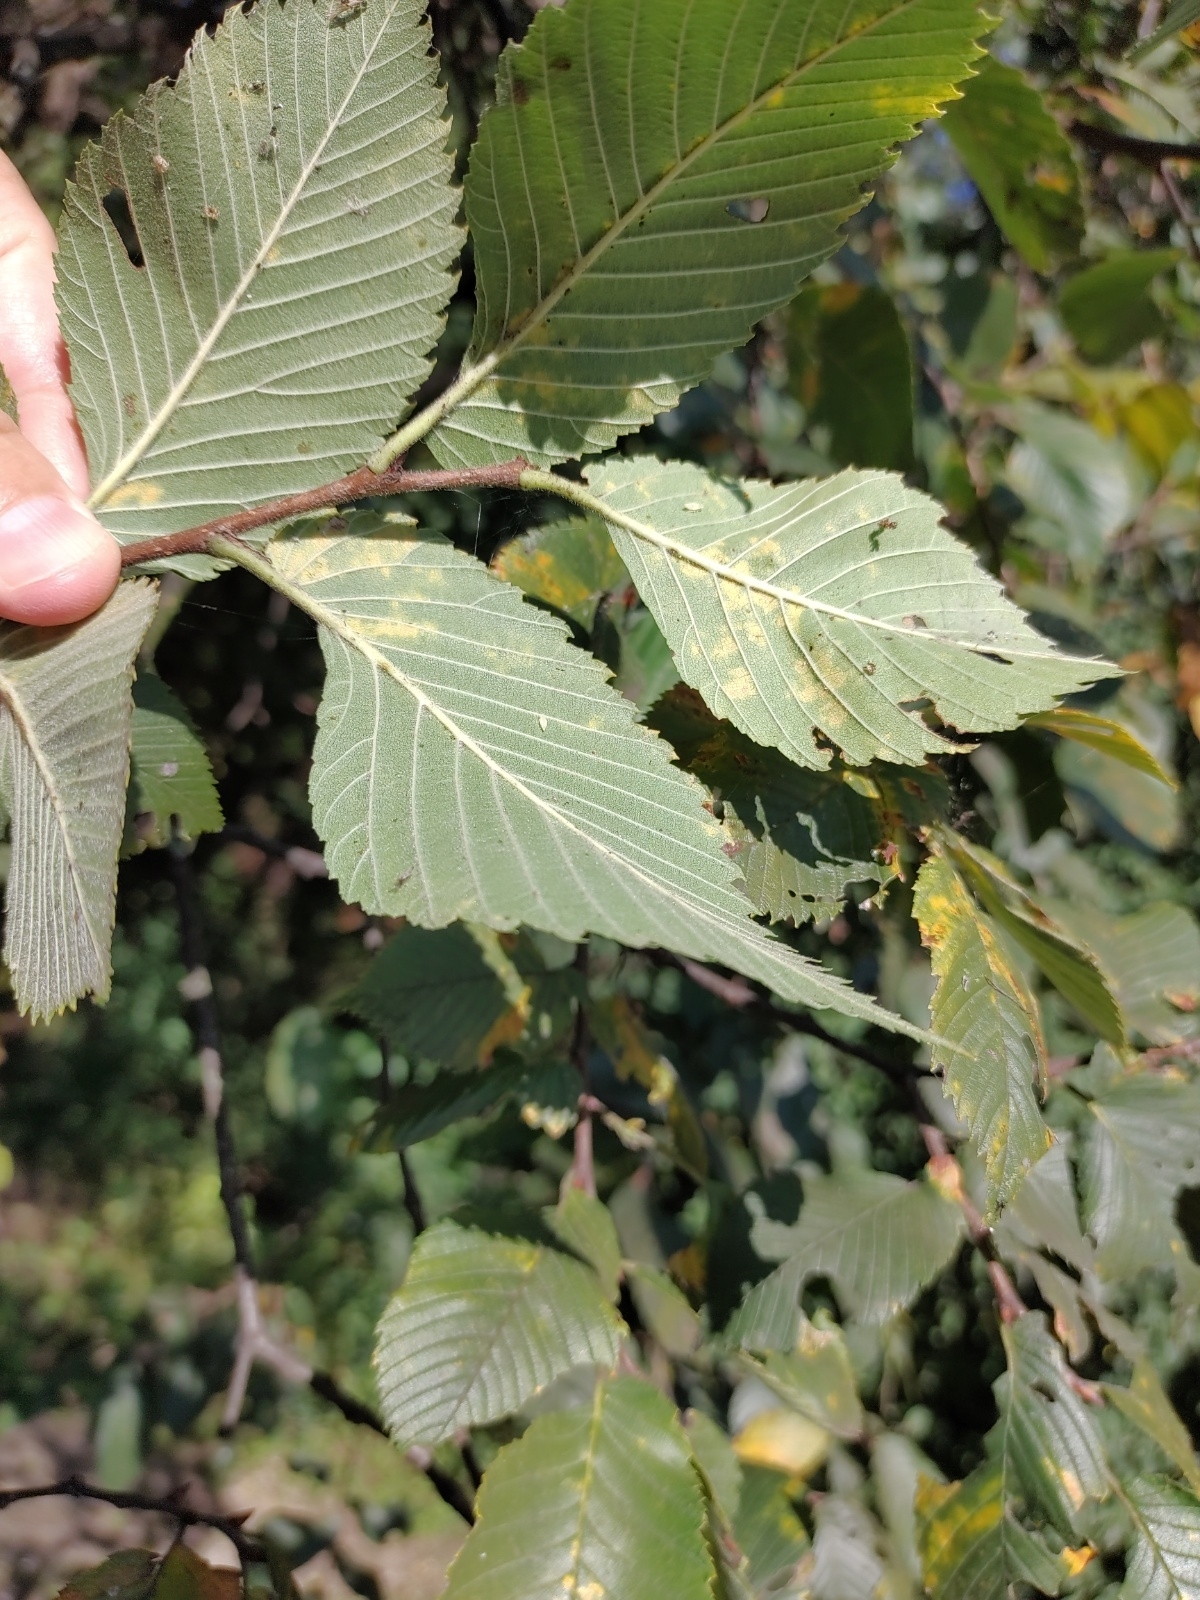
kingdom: Plantae
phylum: Tracheophyta
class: Magnoliopsida
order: Rosales
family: Ulmaceae
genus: Ulmus
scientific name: Ulmus laevis
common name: European white-elm
